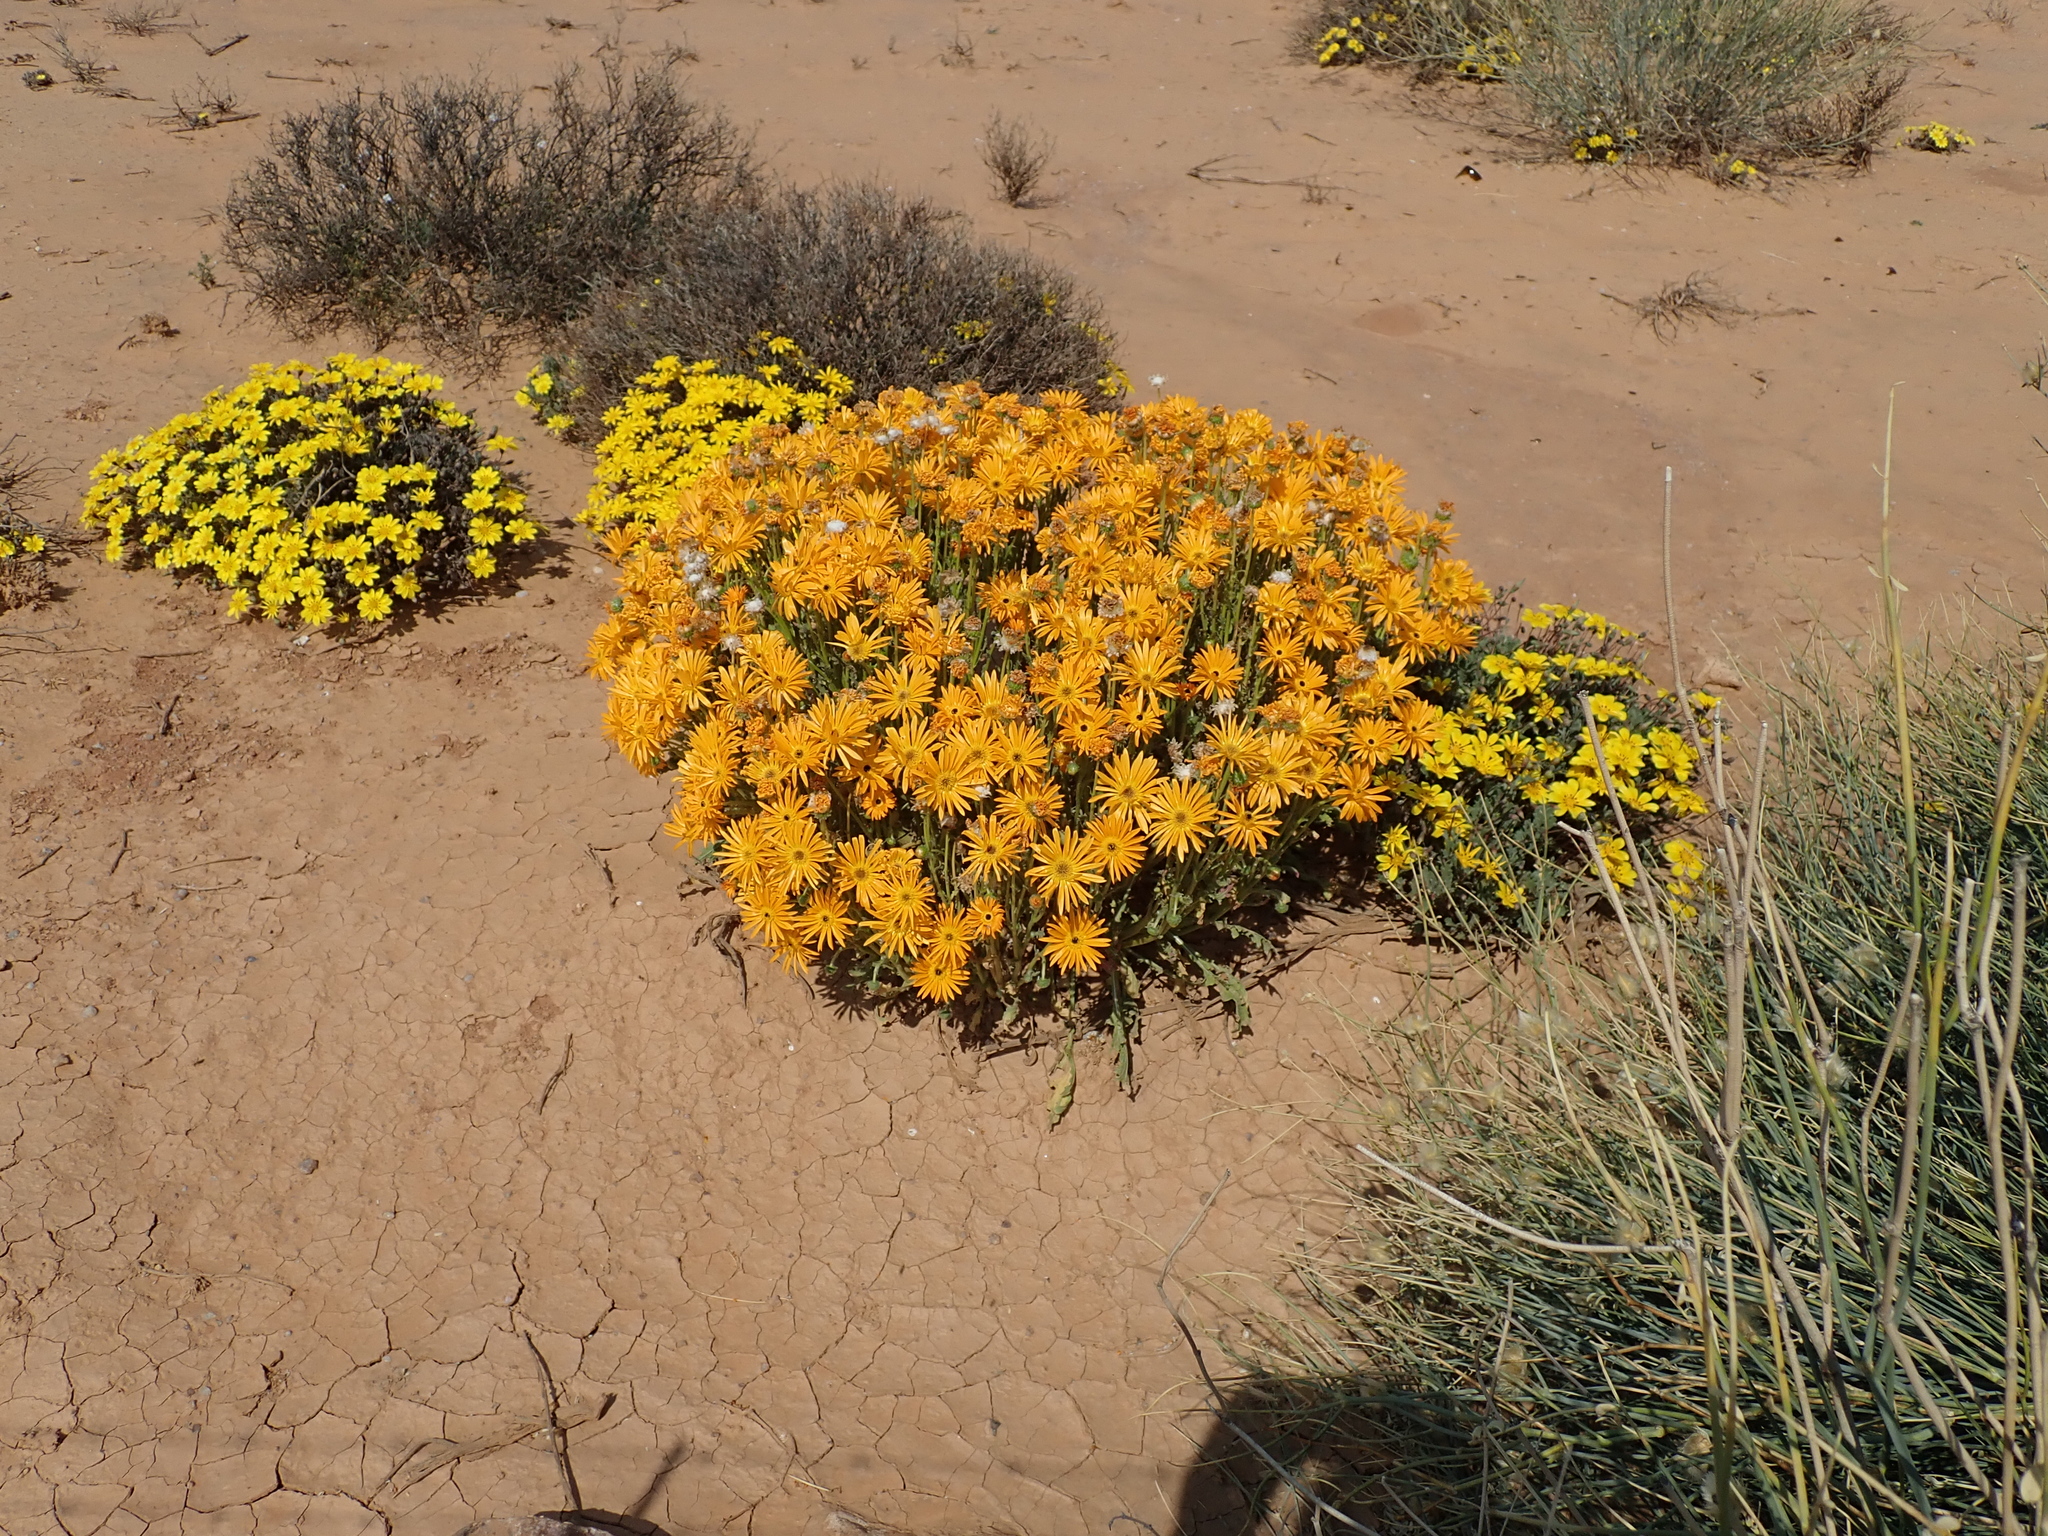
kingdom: Plantae
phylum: Tracheophyta
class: Magnoliopsida
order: Asterales
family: Asteraceae
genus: Arctotis
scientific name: Arctotis leiocarpa
